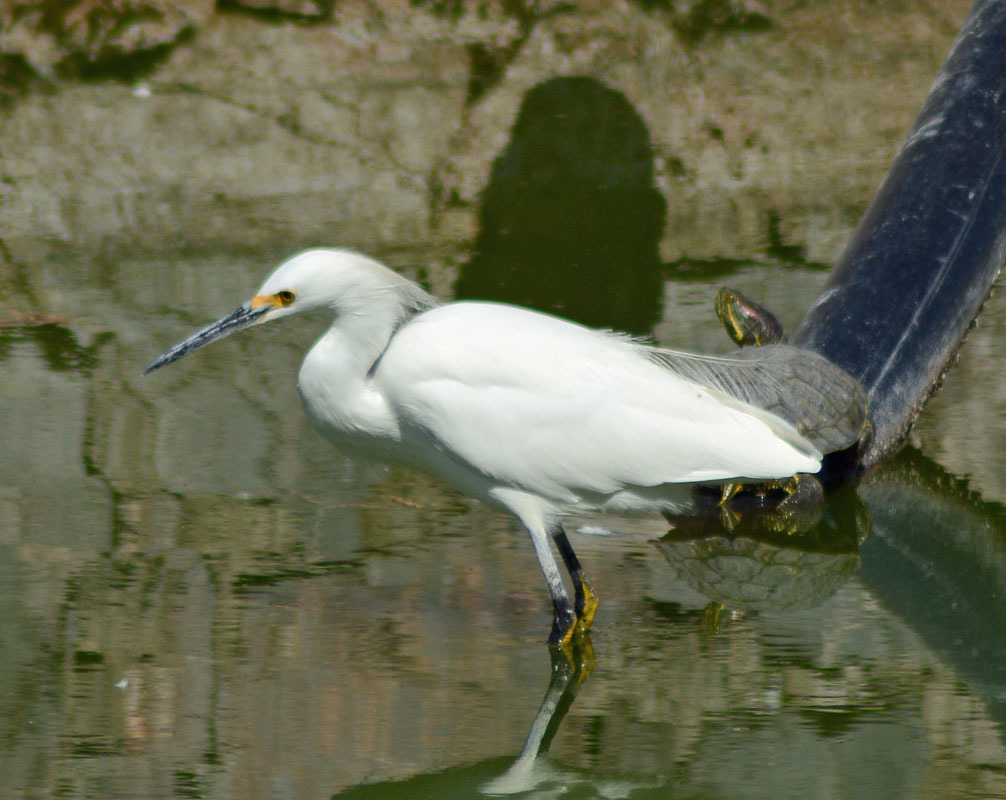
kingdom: Animalia
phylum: Chordata
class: Aves
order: Pelecaniformes
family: Ardeidae
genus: Egretta
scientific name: Egretta thula
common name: Snowy egret
